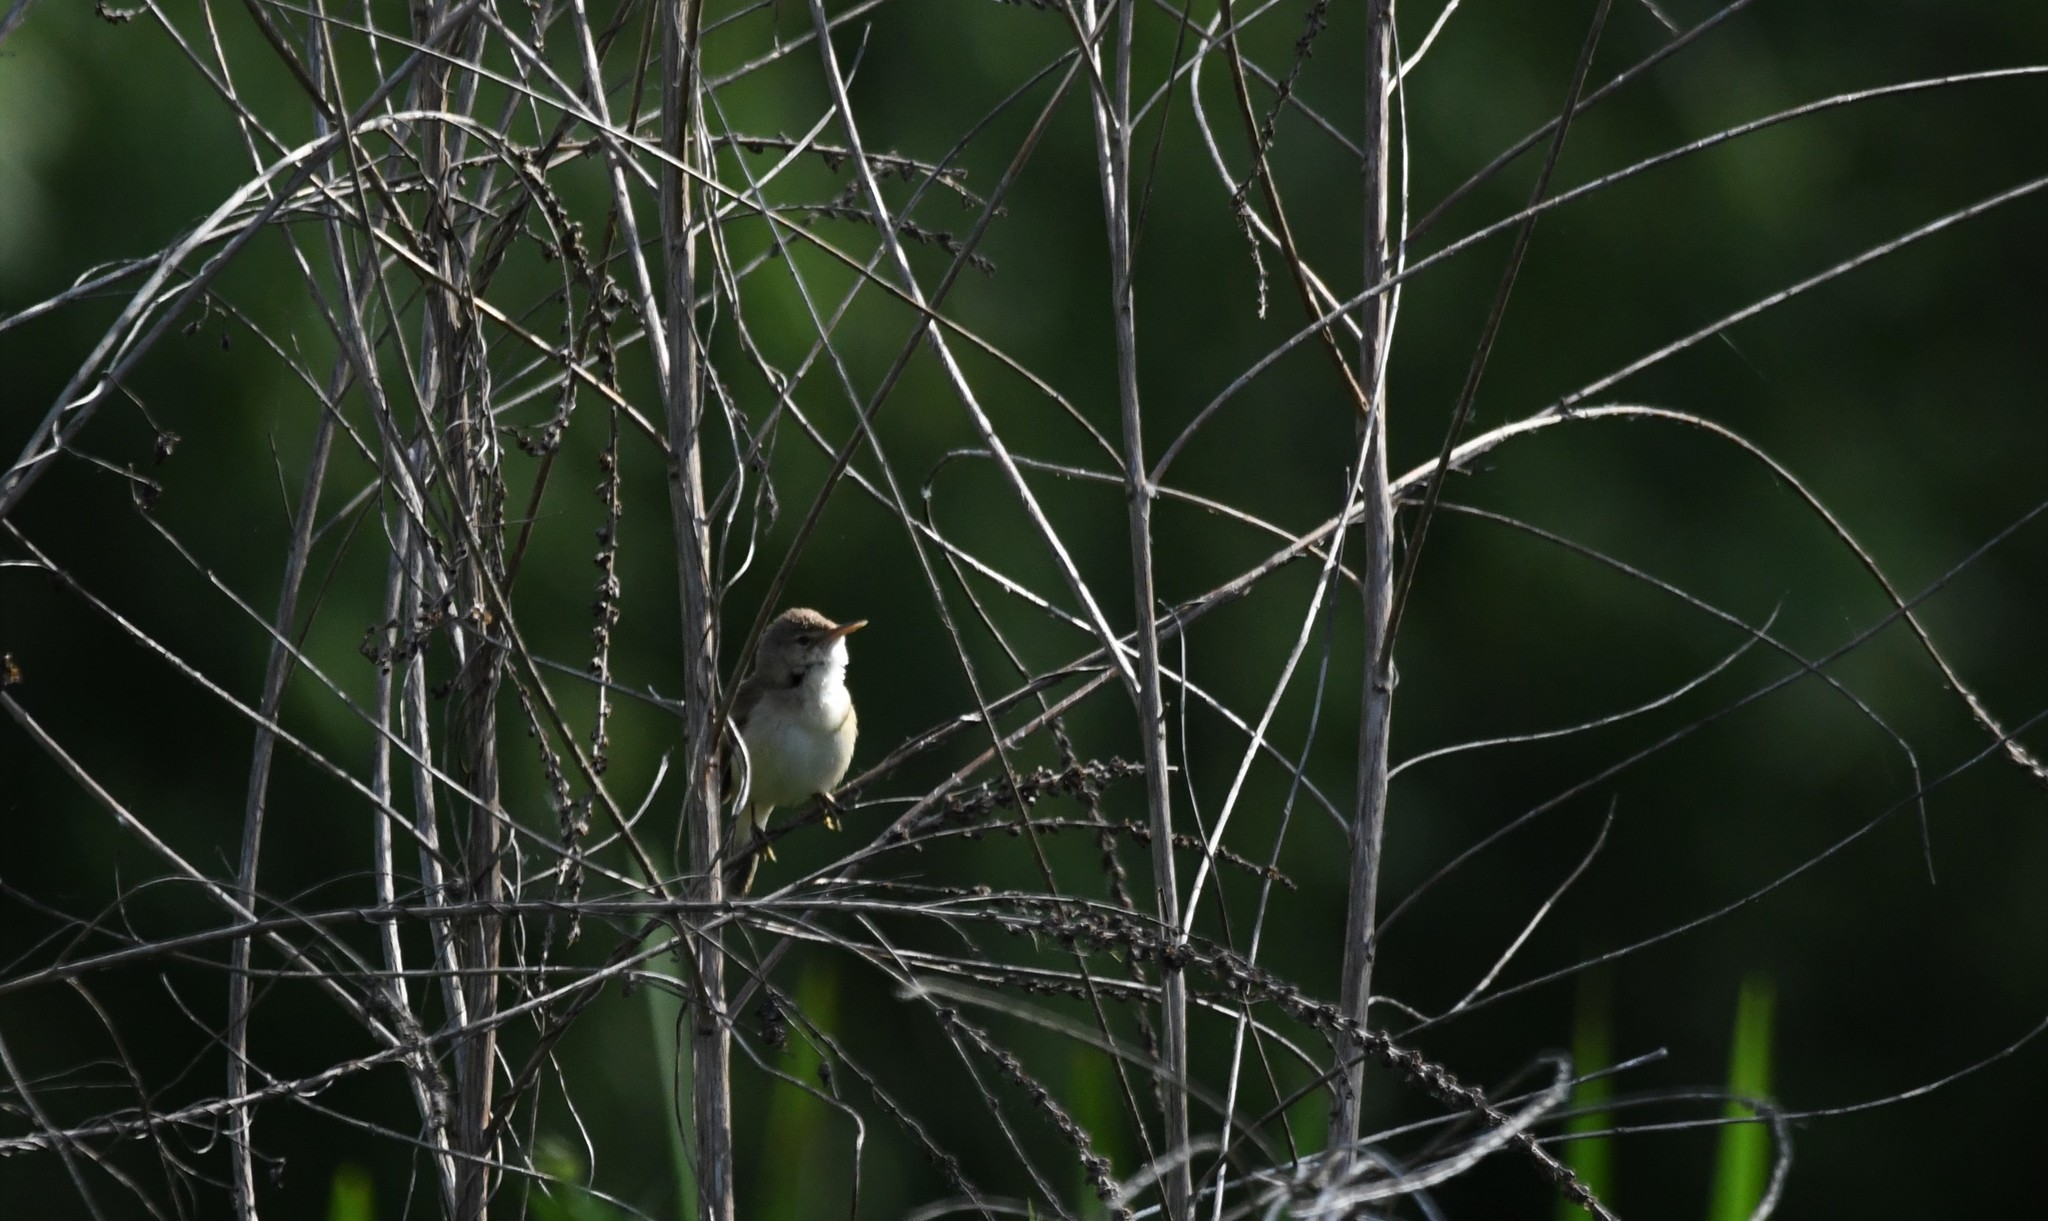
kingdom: Animalia
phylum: Chordata
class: Aves
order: Passeriformes
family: Acrocephalidae
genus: Acrocephalus
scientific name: Acrocephalus scirpaceus
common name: Eurasian reed warbler
